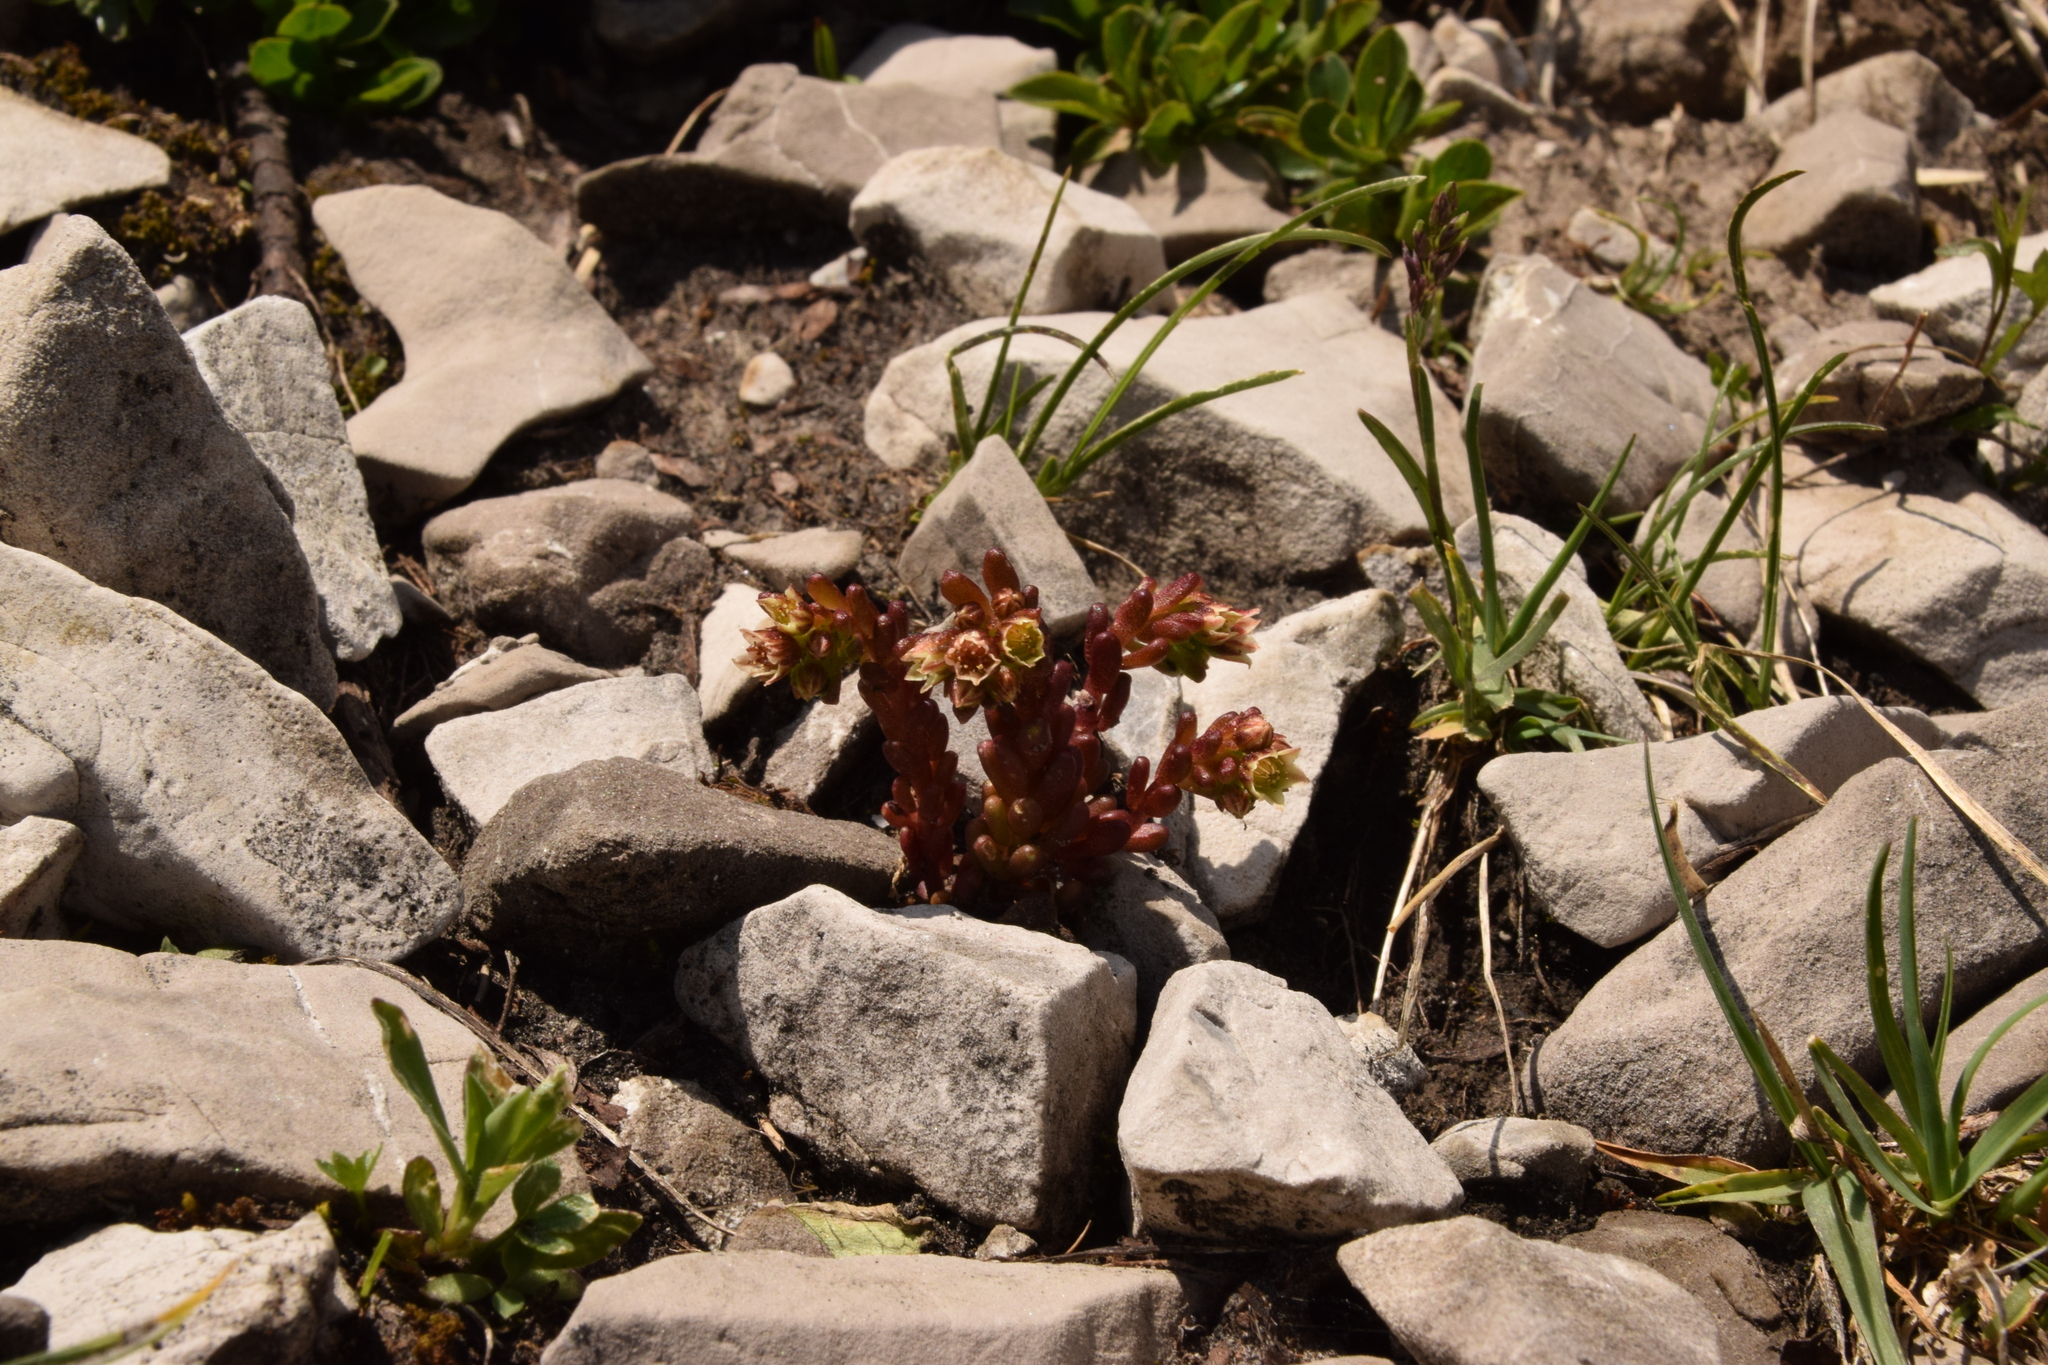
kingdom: Plantae
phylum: Tracheophyta
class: Magnoliopsida
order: Saxifragales
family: Crassulaceae
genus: Sedum
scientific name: Sedum atratum
